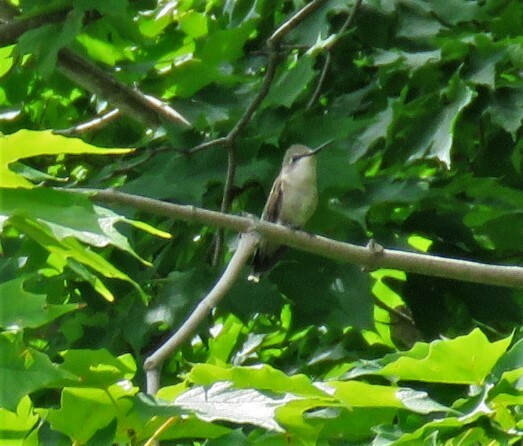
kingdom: Animalia
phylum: Chordata
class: Aves
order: Apodiformes
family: Trochilidae
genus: Archilochus
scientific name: Archilochus colubris
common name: Ruby-throated hummingbird
